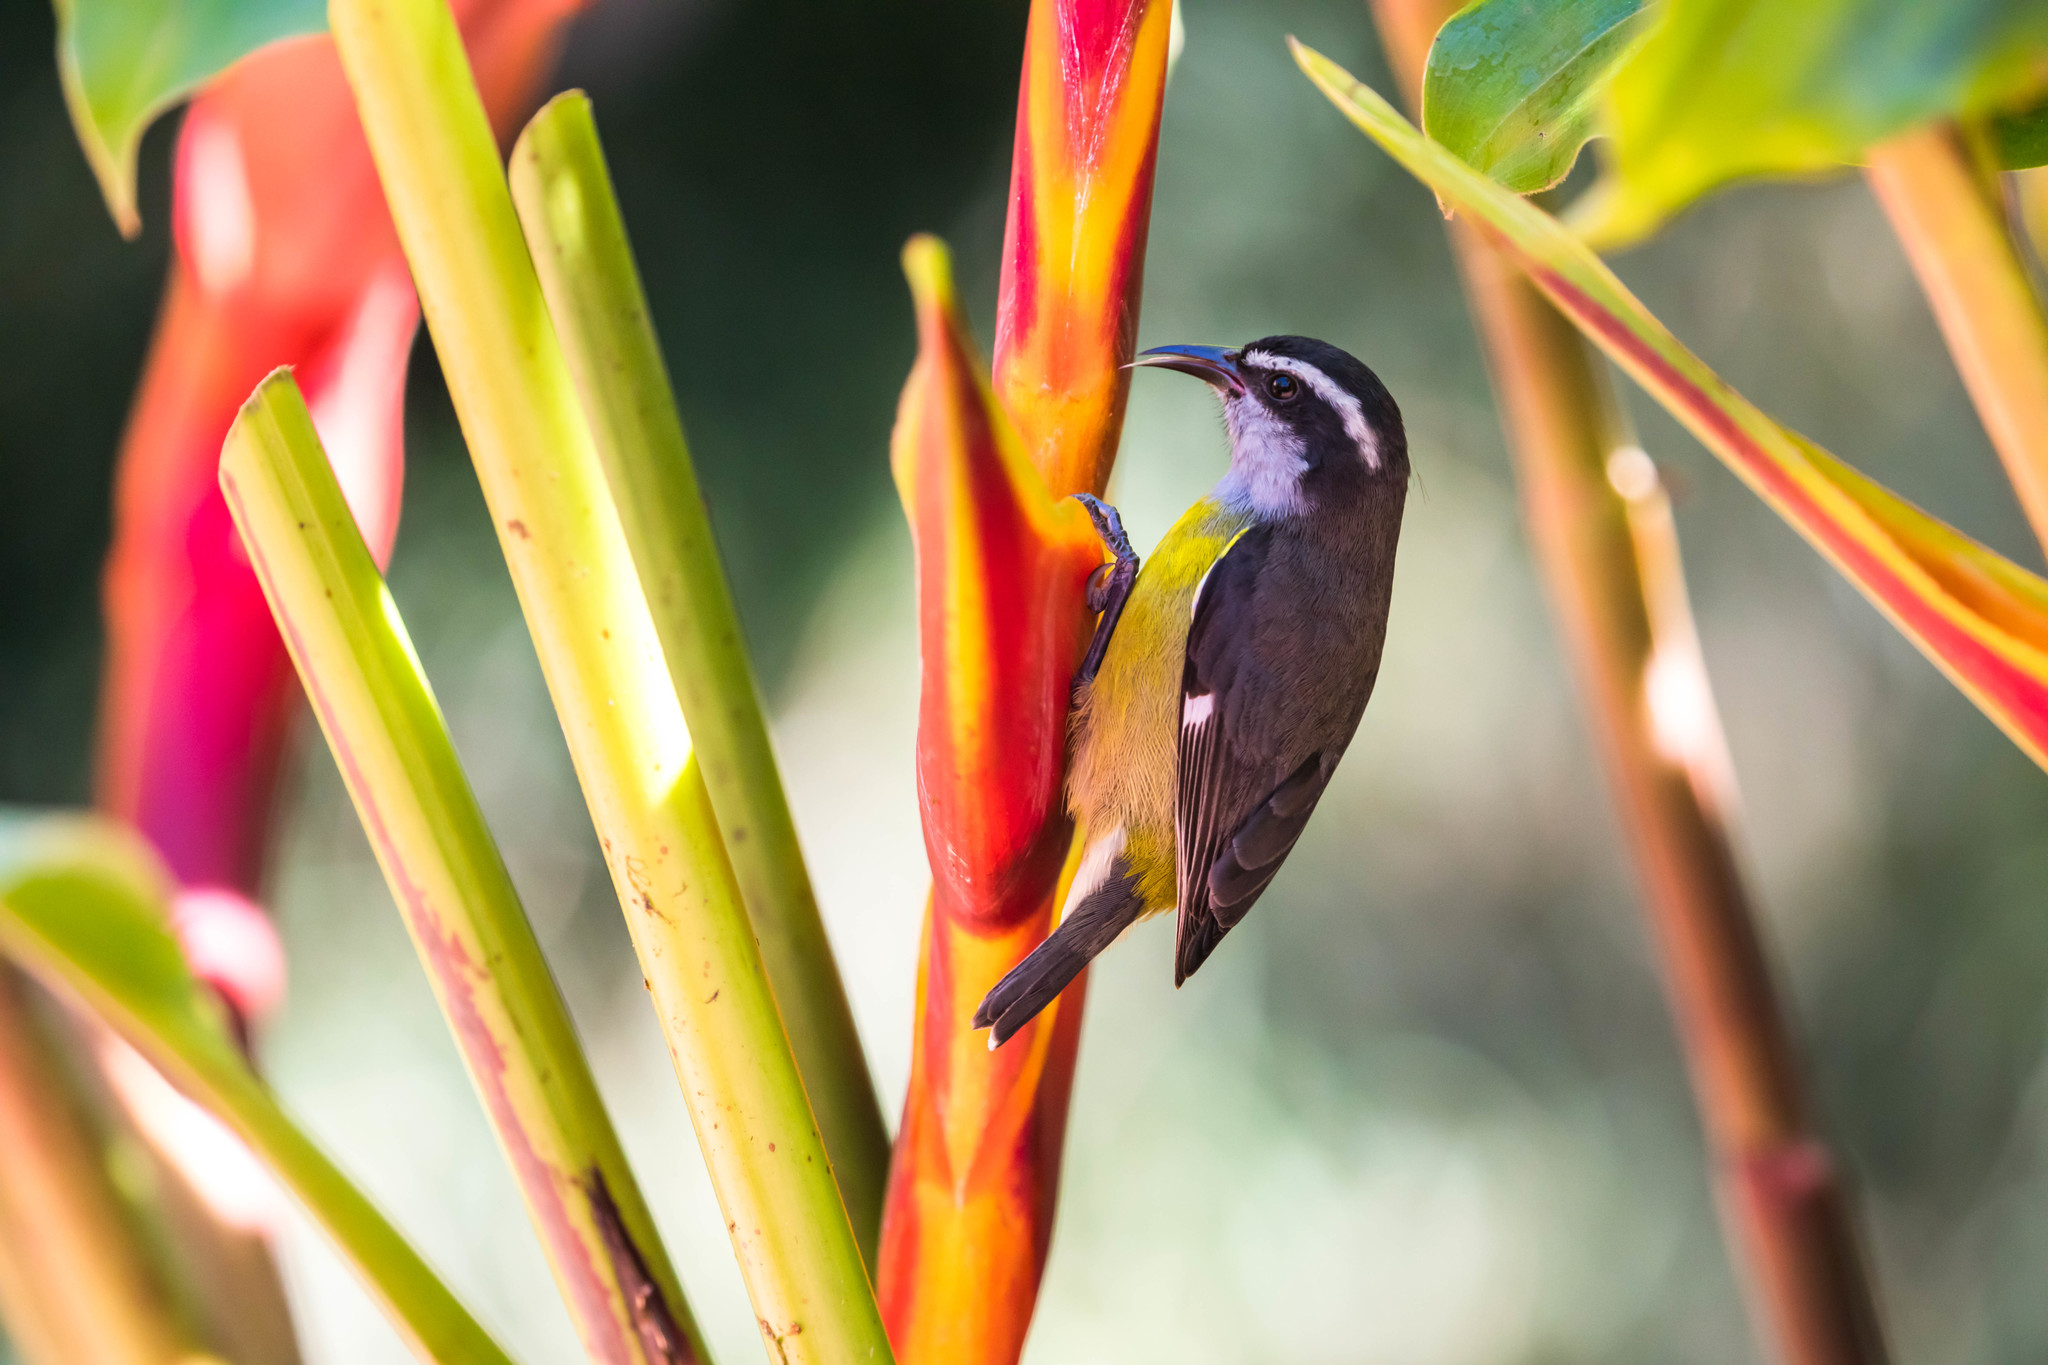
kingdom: Animalia
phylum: Chordata
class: Aves
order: Passeriformes
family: Thraupidae
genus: Coereba
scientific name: Coereba flaveola
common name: Bananaquit
